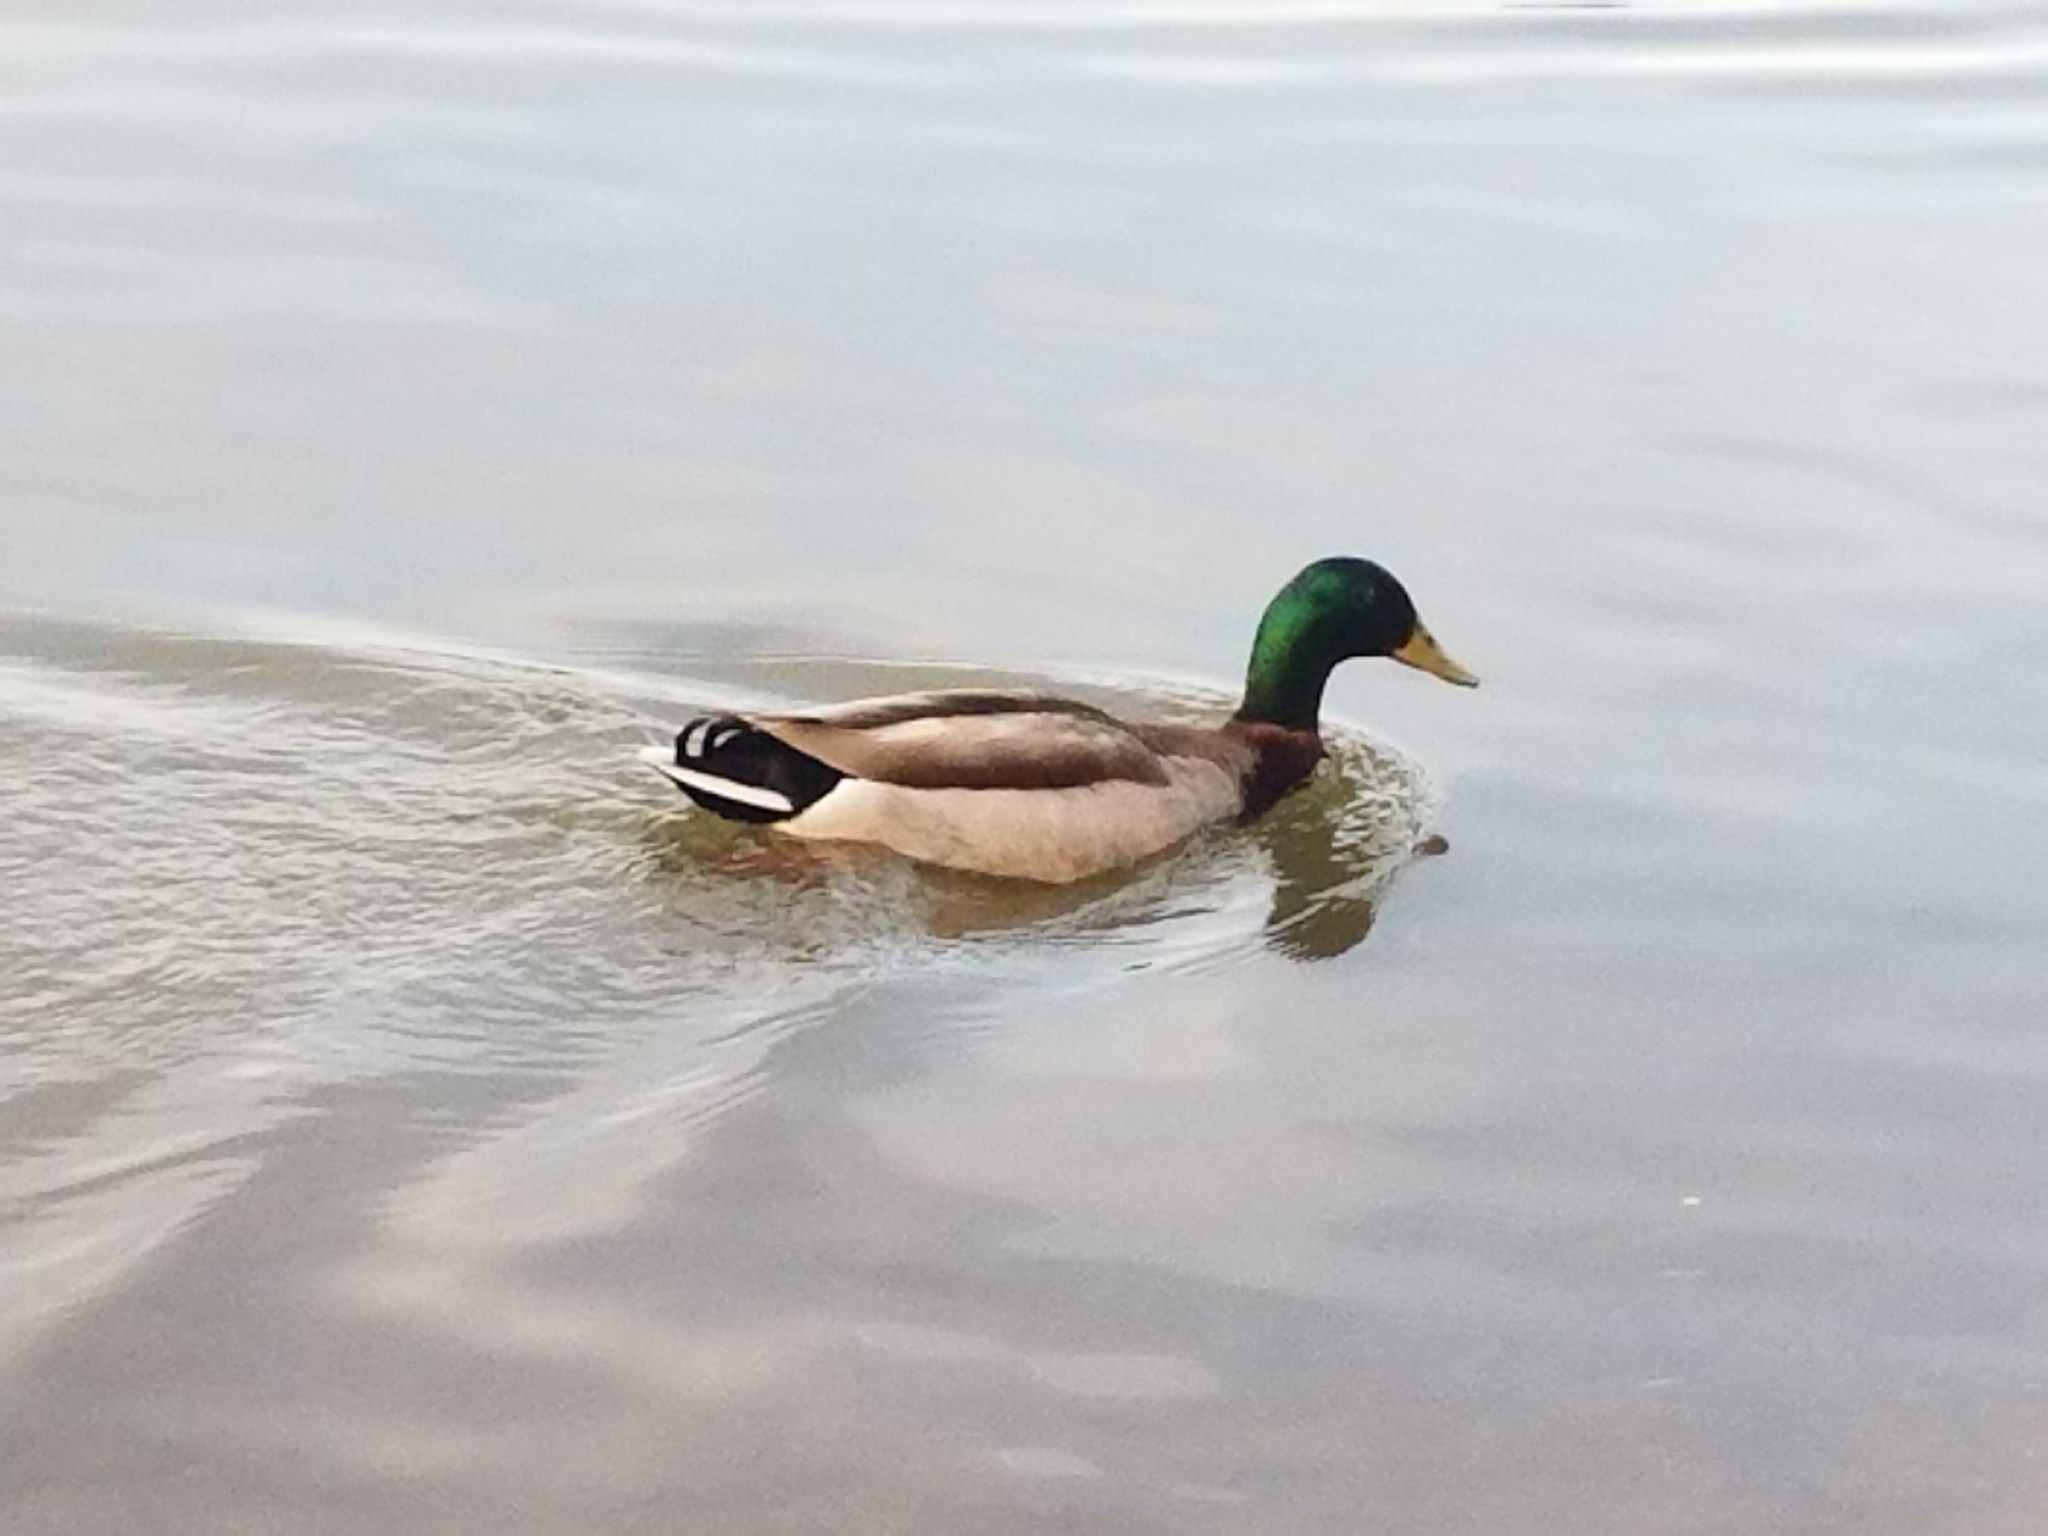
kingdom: Animalia
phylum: Chordata
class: Aves
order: Anseriformes
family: Anatidae
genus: Anas
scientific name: Anas platyrhynchos
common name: Mallard
